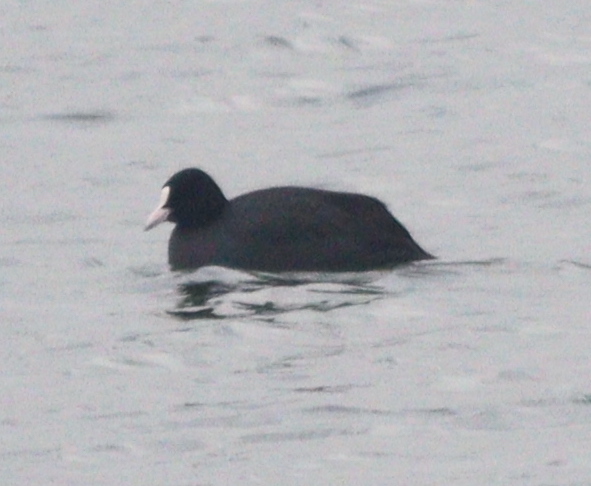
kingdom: Animalia
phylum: Chordata
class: Aves
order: Gruiformes
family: Rallidae
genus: Fulica
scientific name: Fulica atra
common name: Eurasian coot
